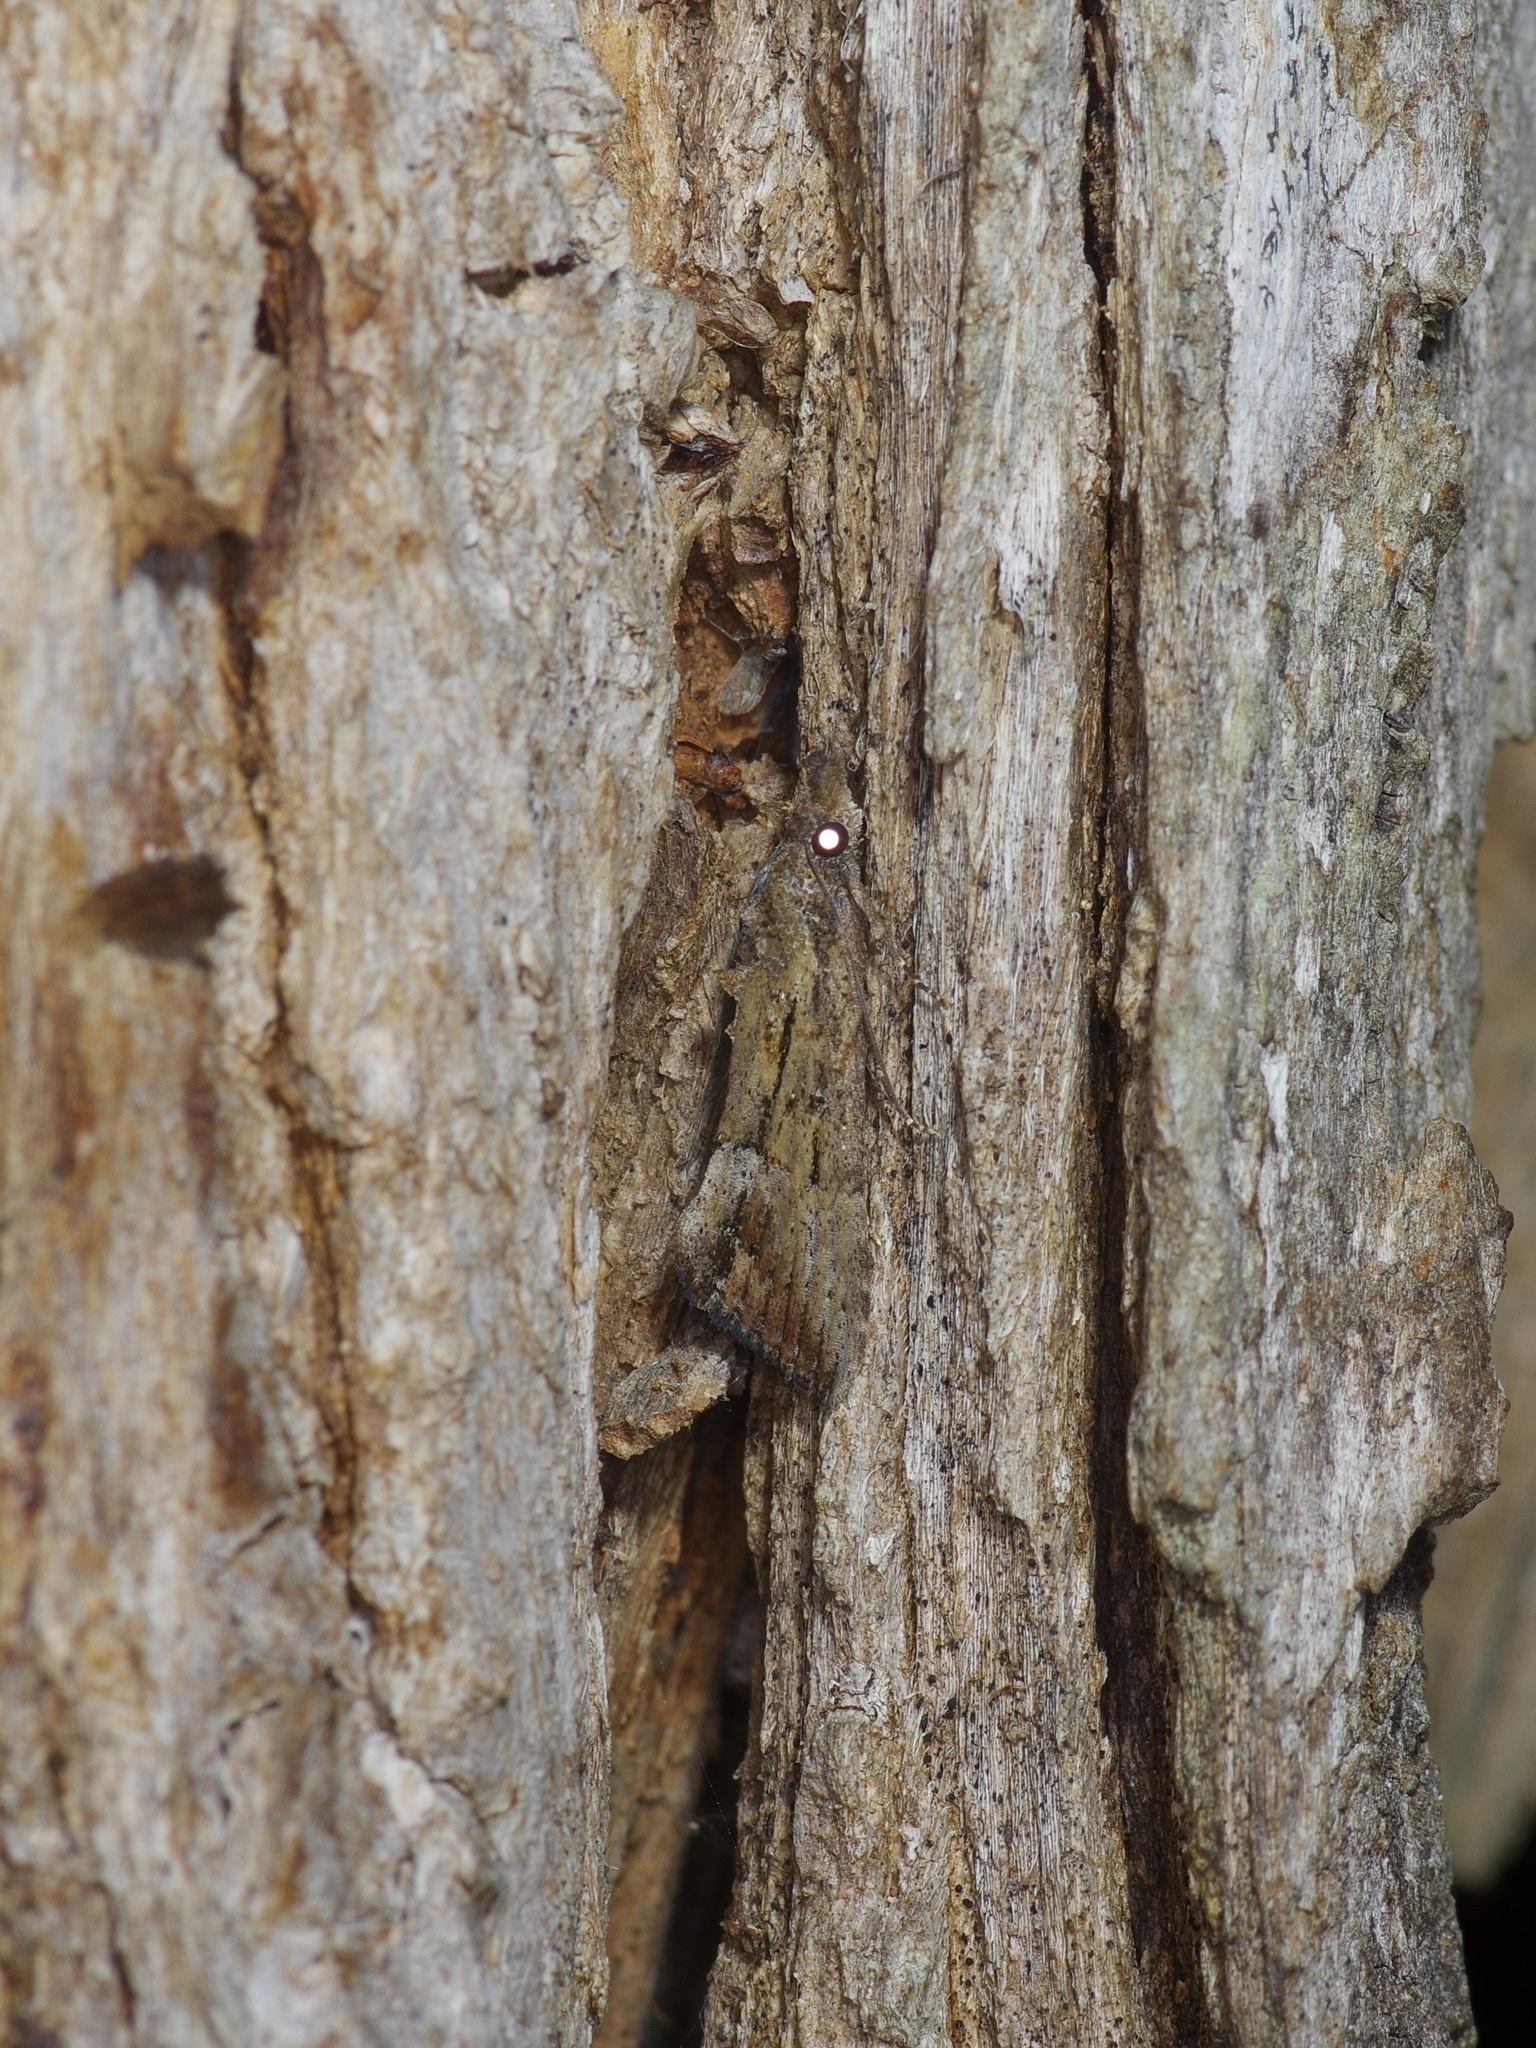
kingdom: Animalia
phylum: Arthropoda
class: Insecta
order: Lepidoptera
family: Erebidae
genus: Hypena
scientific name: Hypena scabra
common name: Green cloverworm
